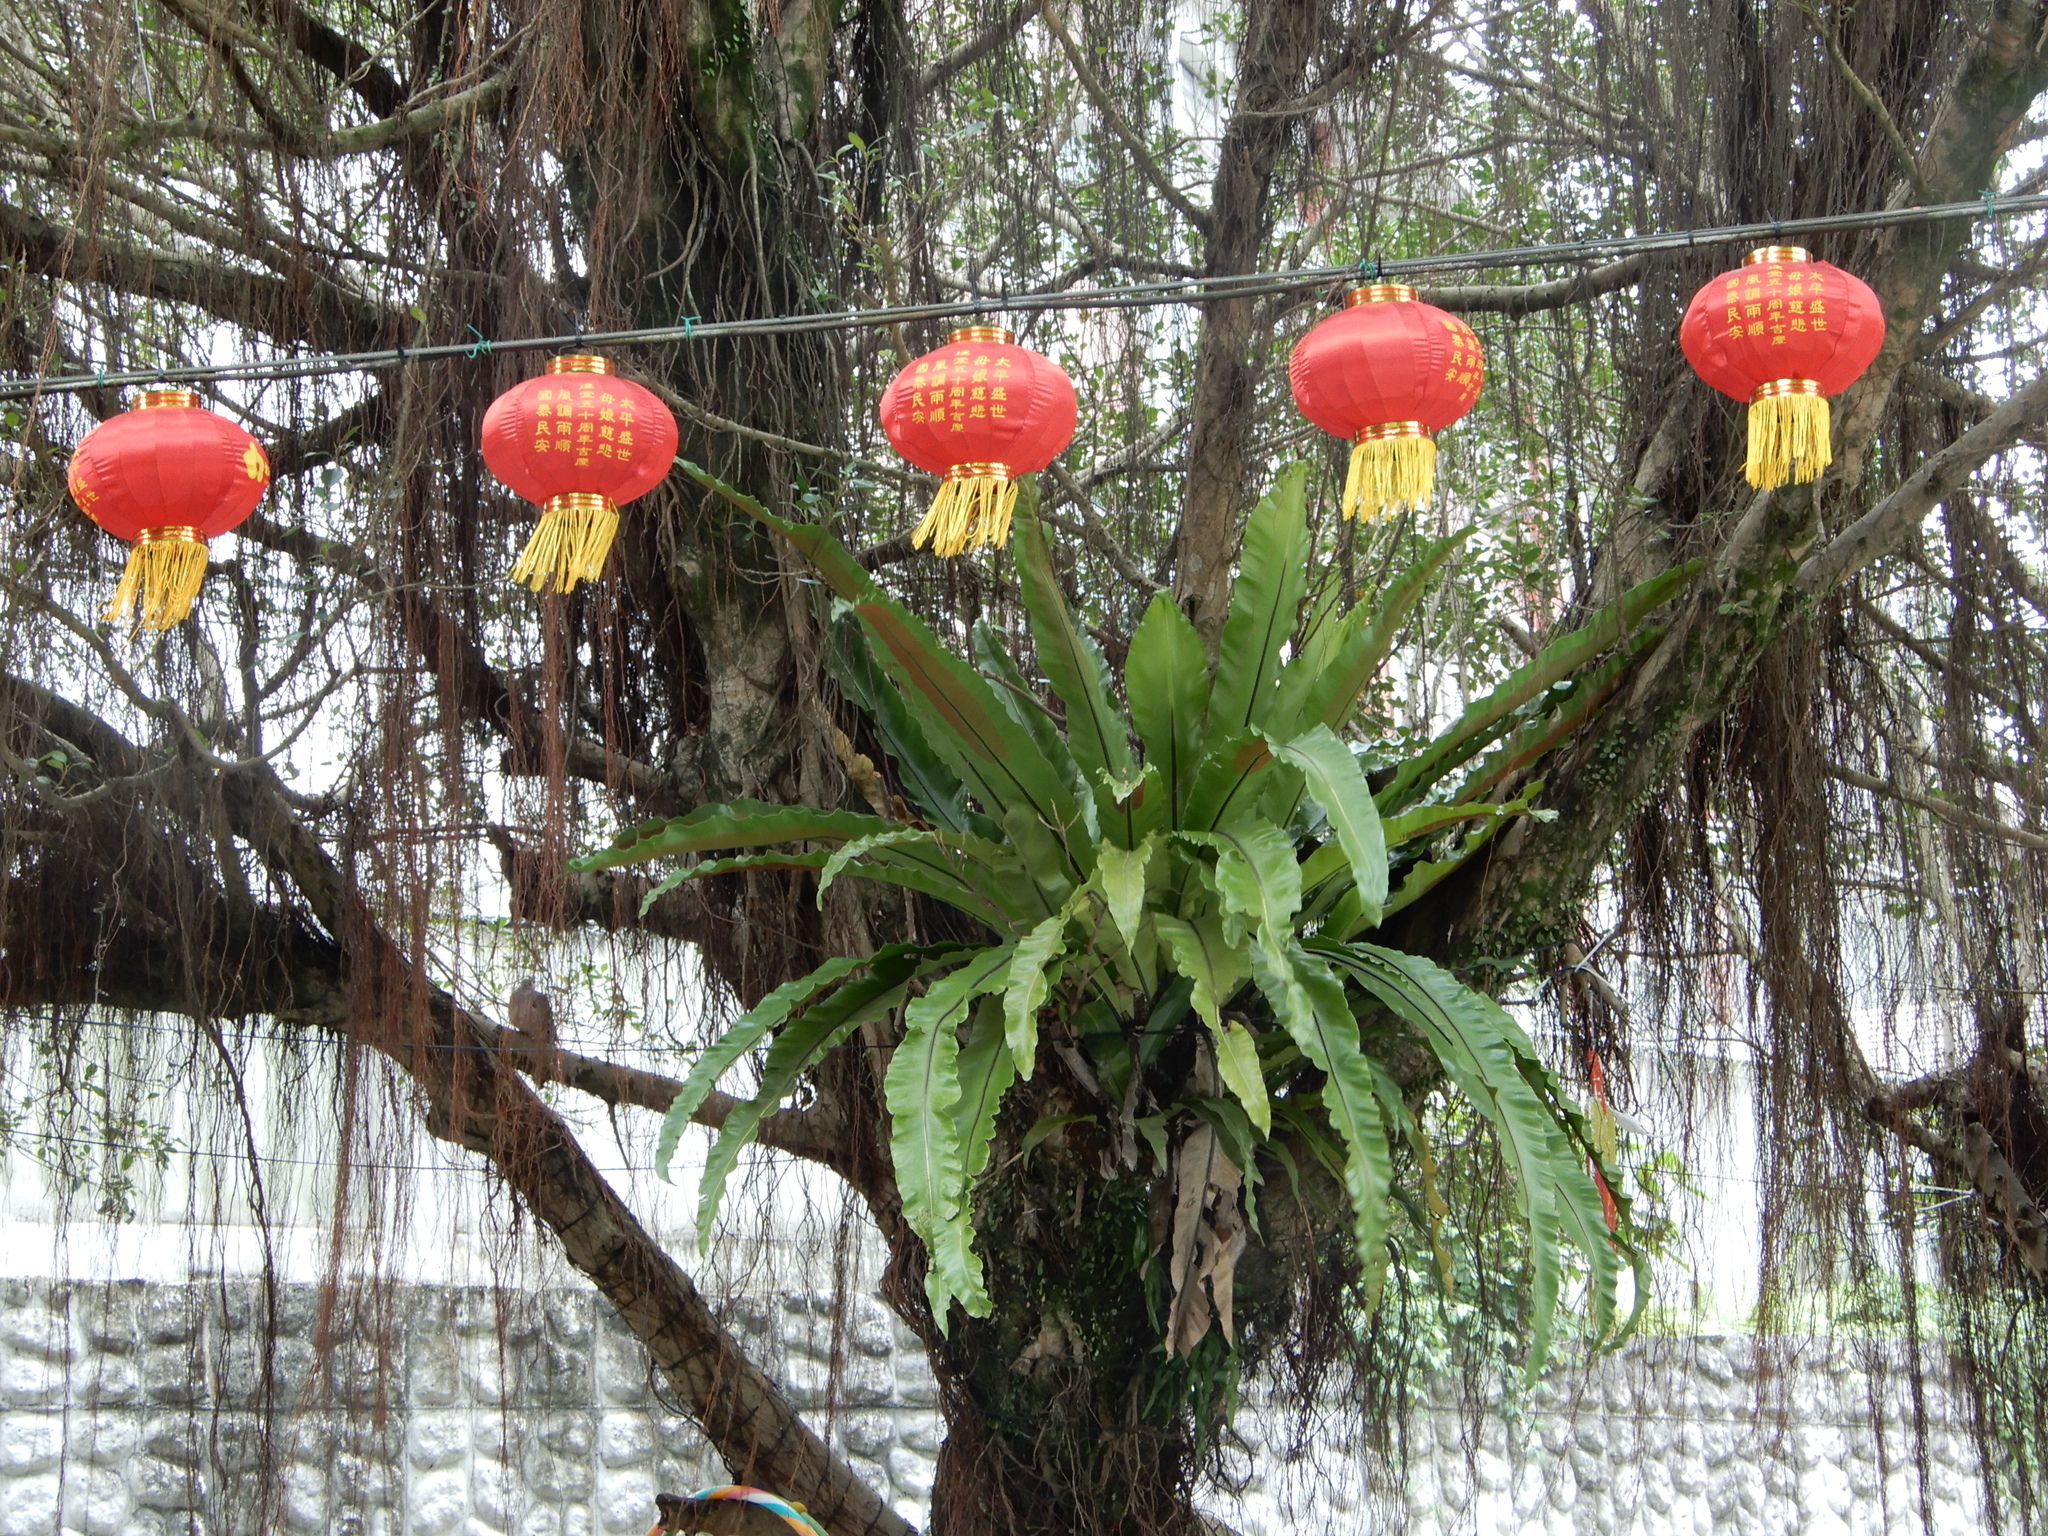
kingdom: Plantae
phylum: Tracheophyta
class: Polypodiopsida
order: Polypodiales
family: Aspleniaceae
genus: Asplenium
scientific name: Asplenium nidus
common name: Bird's-nest fern
